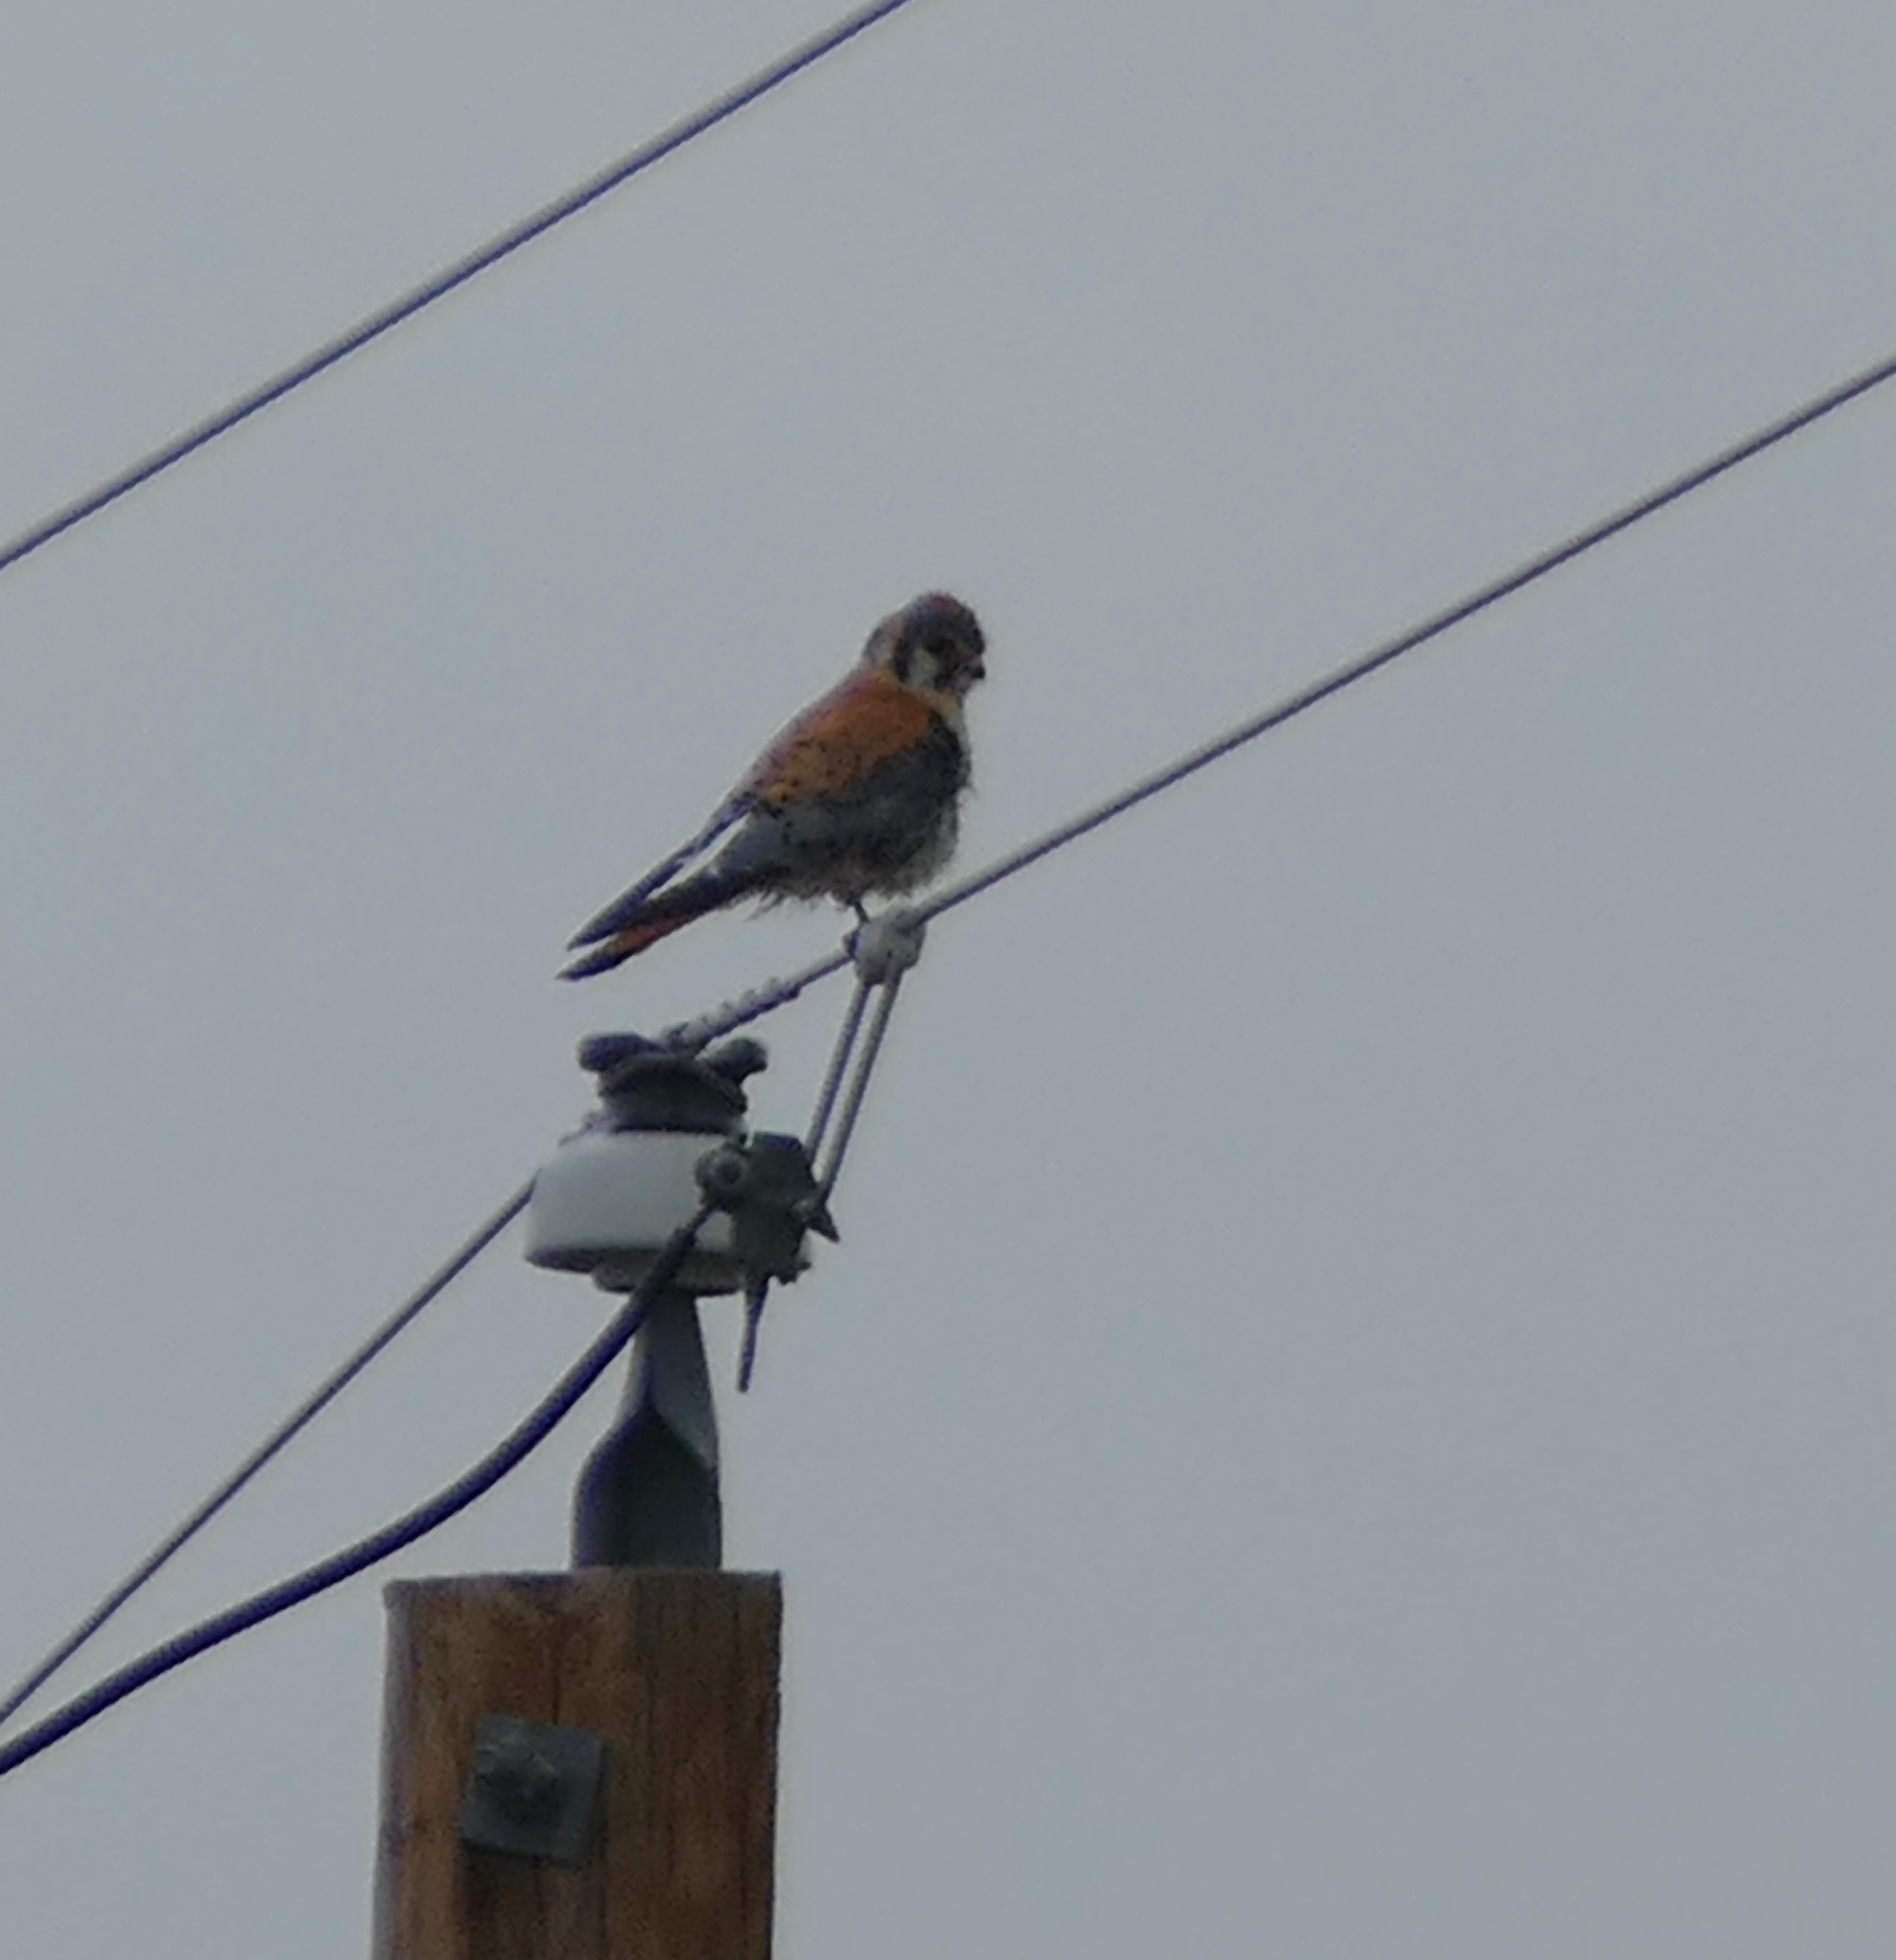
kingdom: Animalia
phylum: Chordata
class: Aves
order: Falconiformes
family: Falconidae
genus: Falco
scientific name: Falco sparverius
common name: American kestrel
